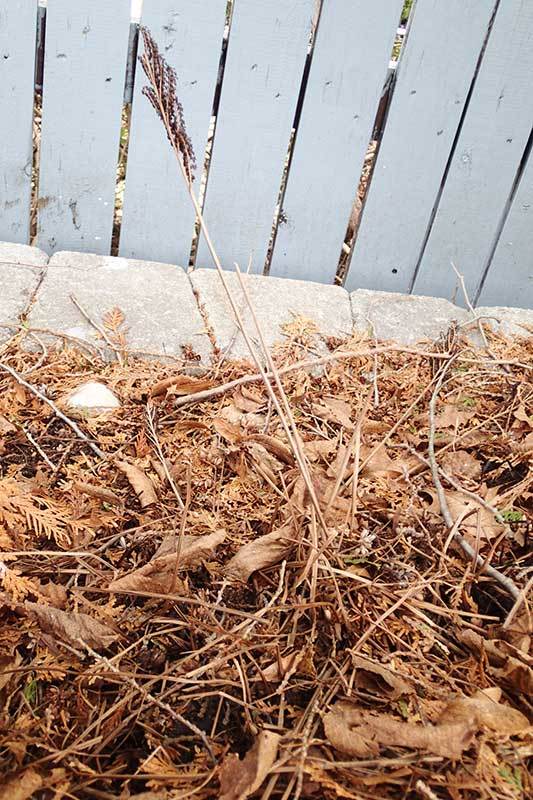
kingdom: Plantae
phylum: Tracheophyta
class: Polypodiopsida
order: Polypodiales
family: Onocleaceae
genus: Onoclea
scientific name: Onoclea sensibilis
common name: Sensitive fern
